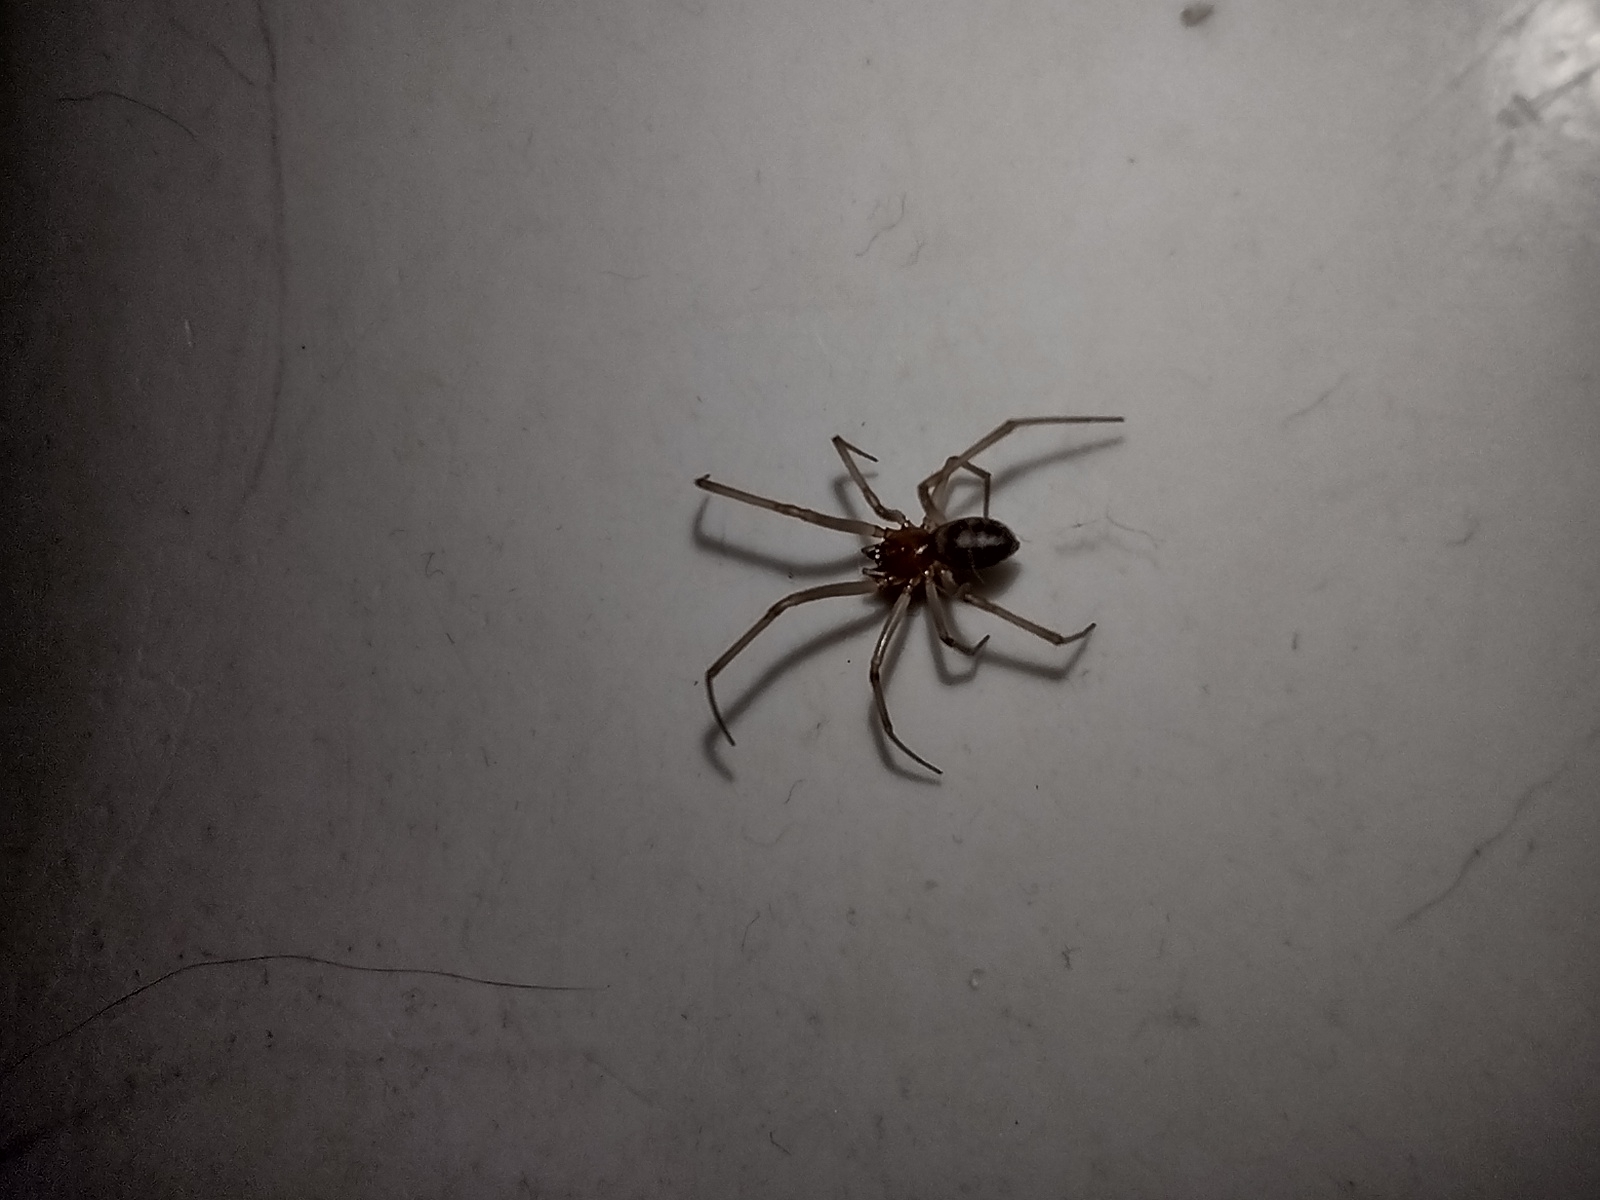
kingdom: Animalia
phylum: Arthropoda
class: Arachnida
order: Araneae
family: Theridiidae
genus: Steatoda
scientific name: Steatoda grossa
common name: False black widow
